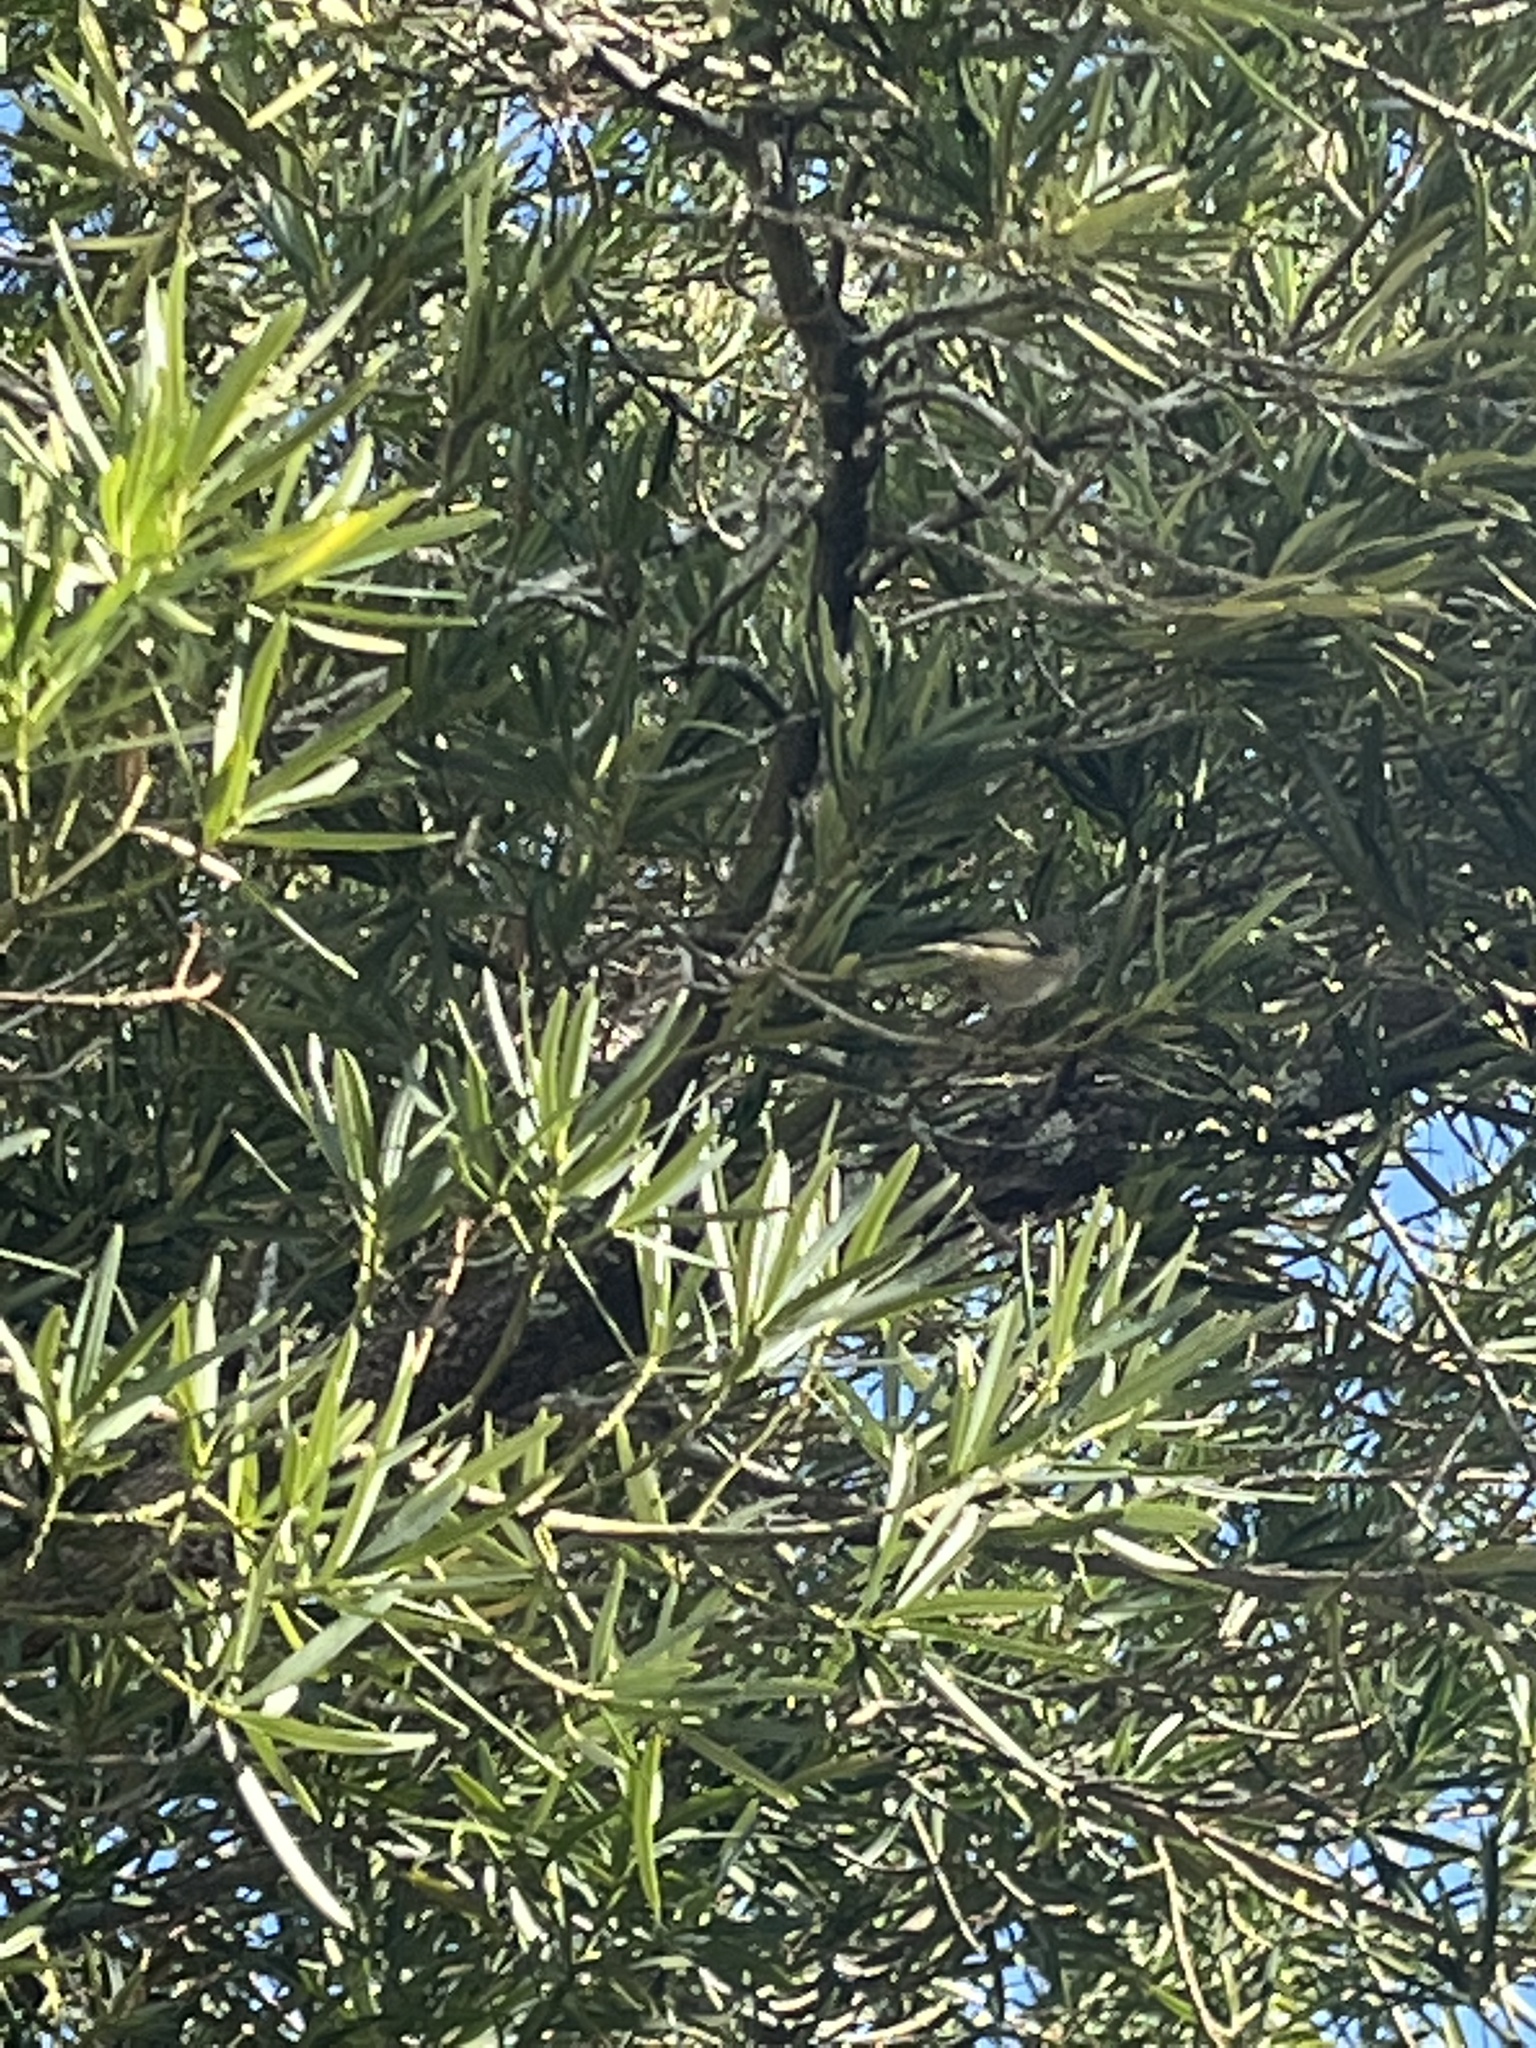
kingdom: Animalia
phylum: Chordata
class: Aves
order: Passeriformes
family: Regulidae
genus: Regulus
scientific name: Regulus calendula
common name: Ruby-crowned kinglet
